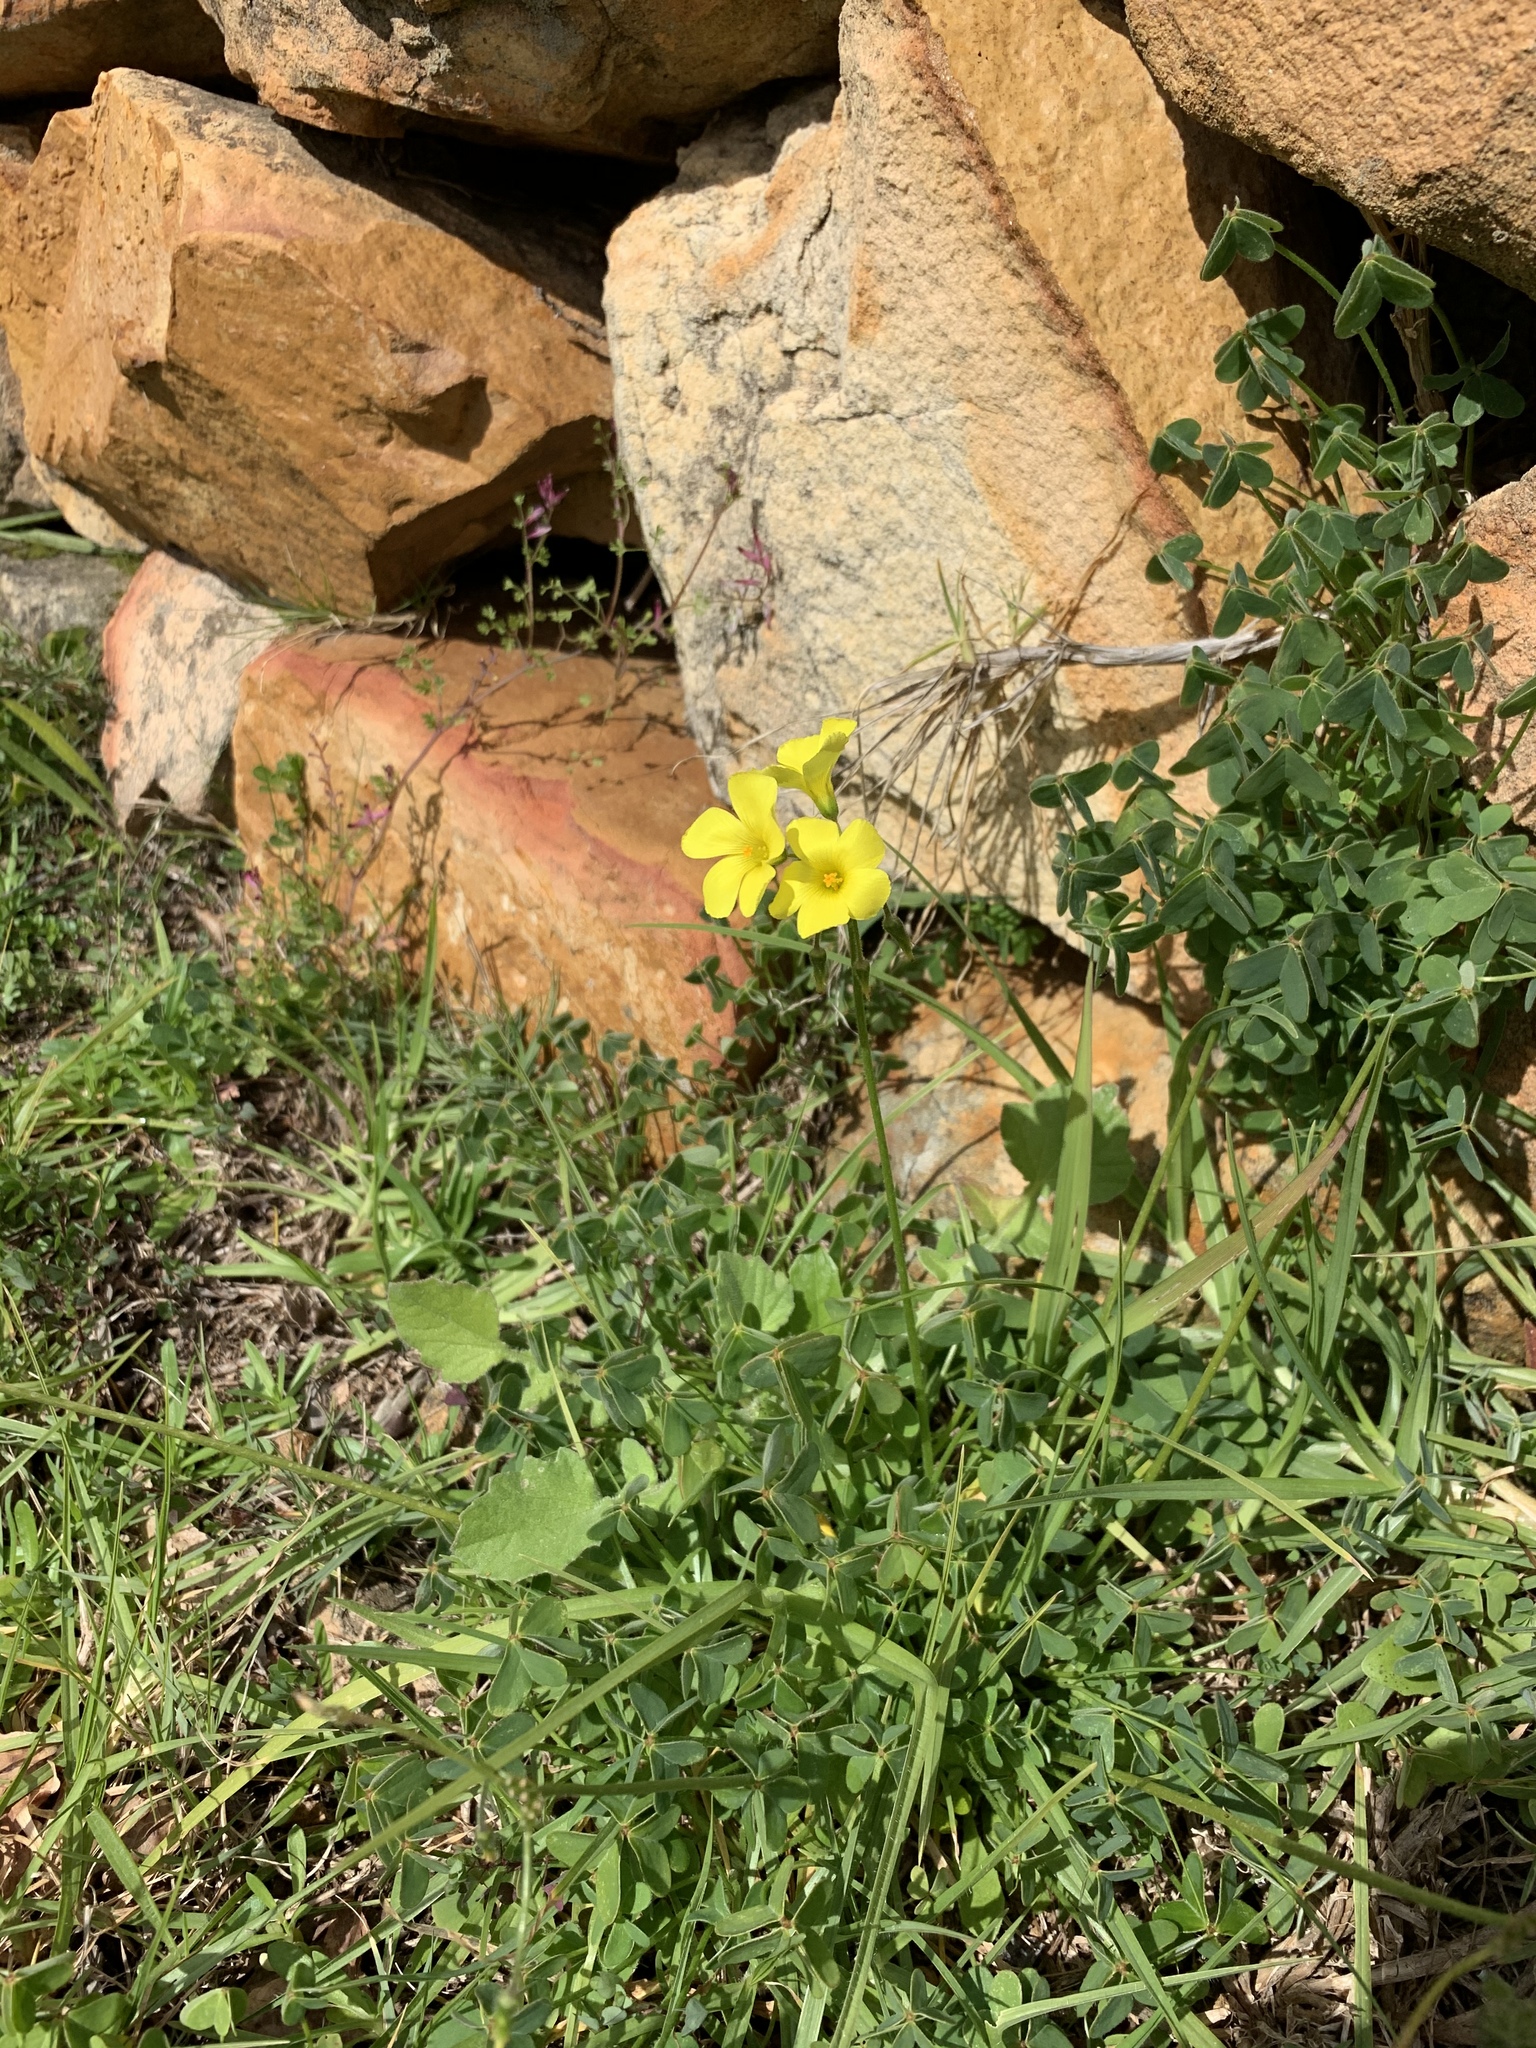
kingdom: Plantae
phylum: Tracheophyta
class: Magnoliopsida
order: Oxalidales
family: Oxalidaceae
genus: Oxalis
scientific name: Oxalis pes-caprae
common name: Bermuda-buttercup
